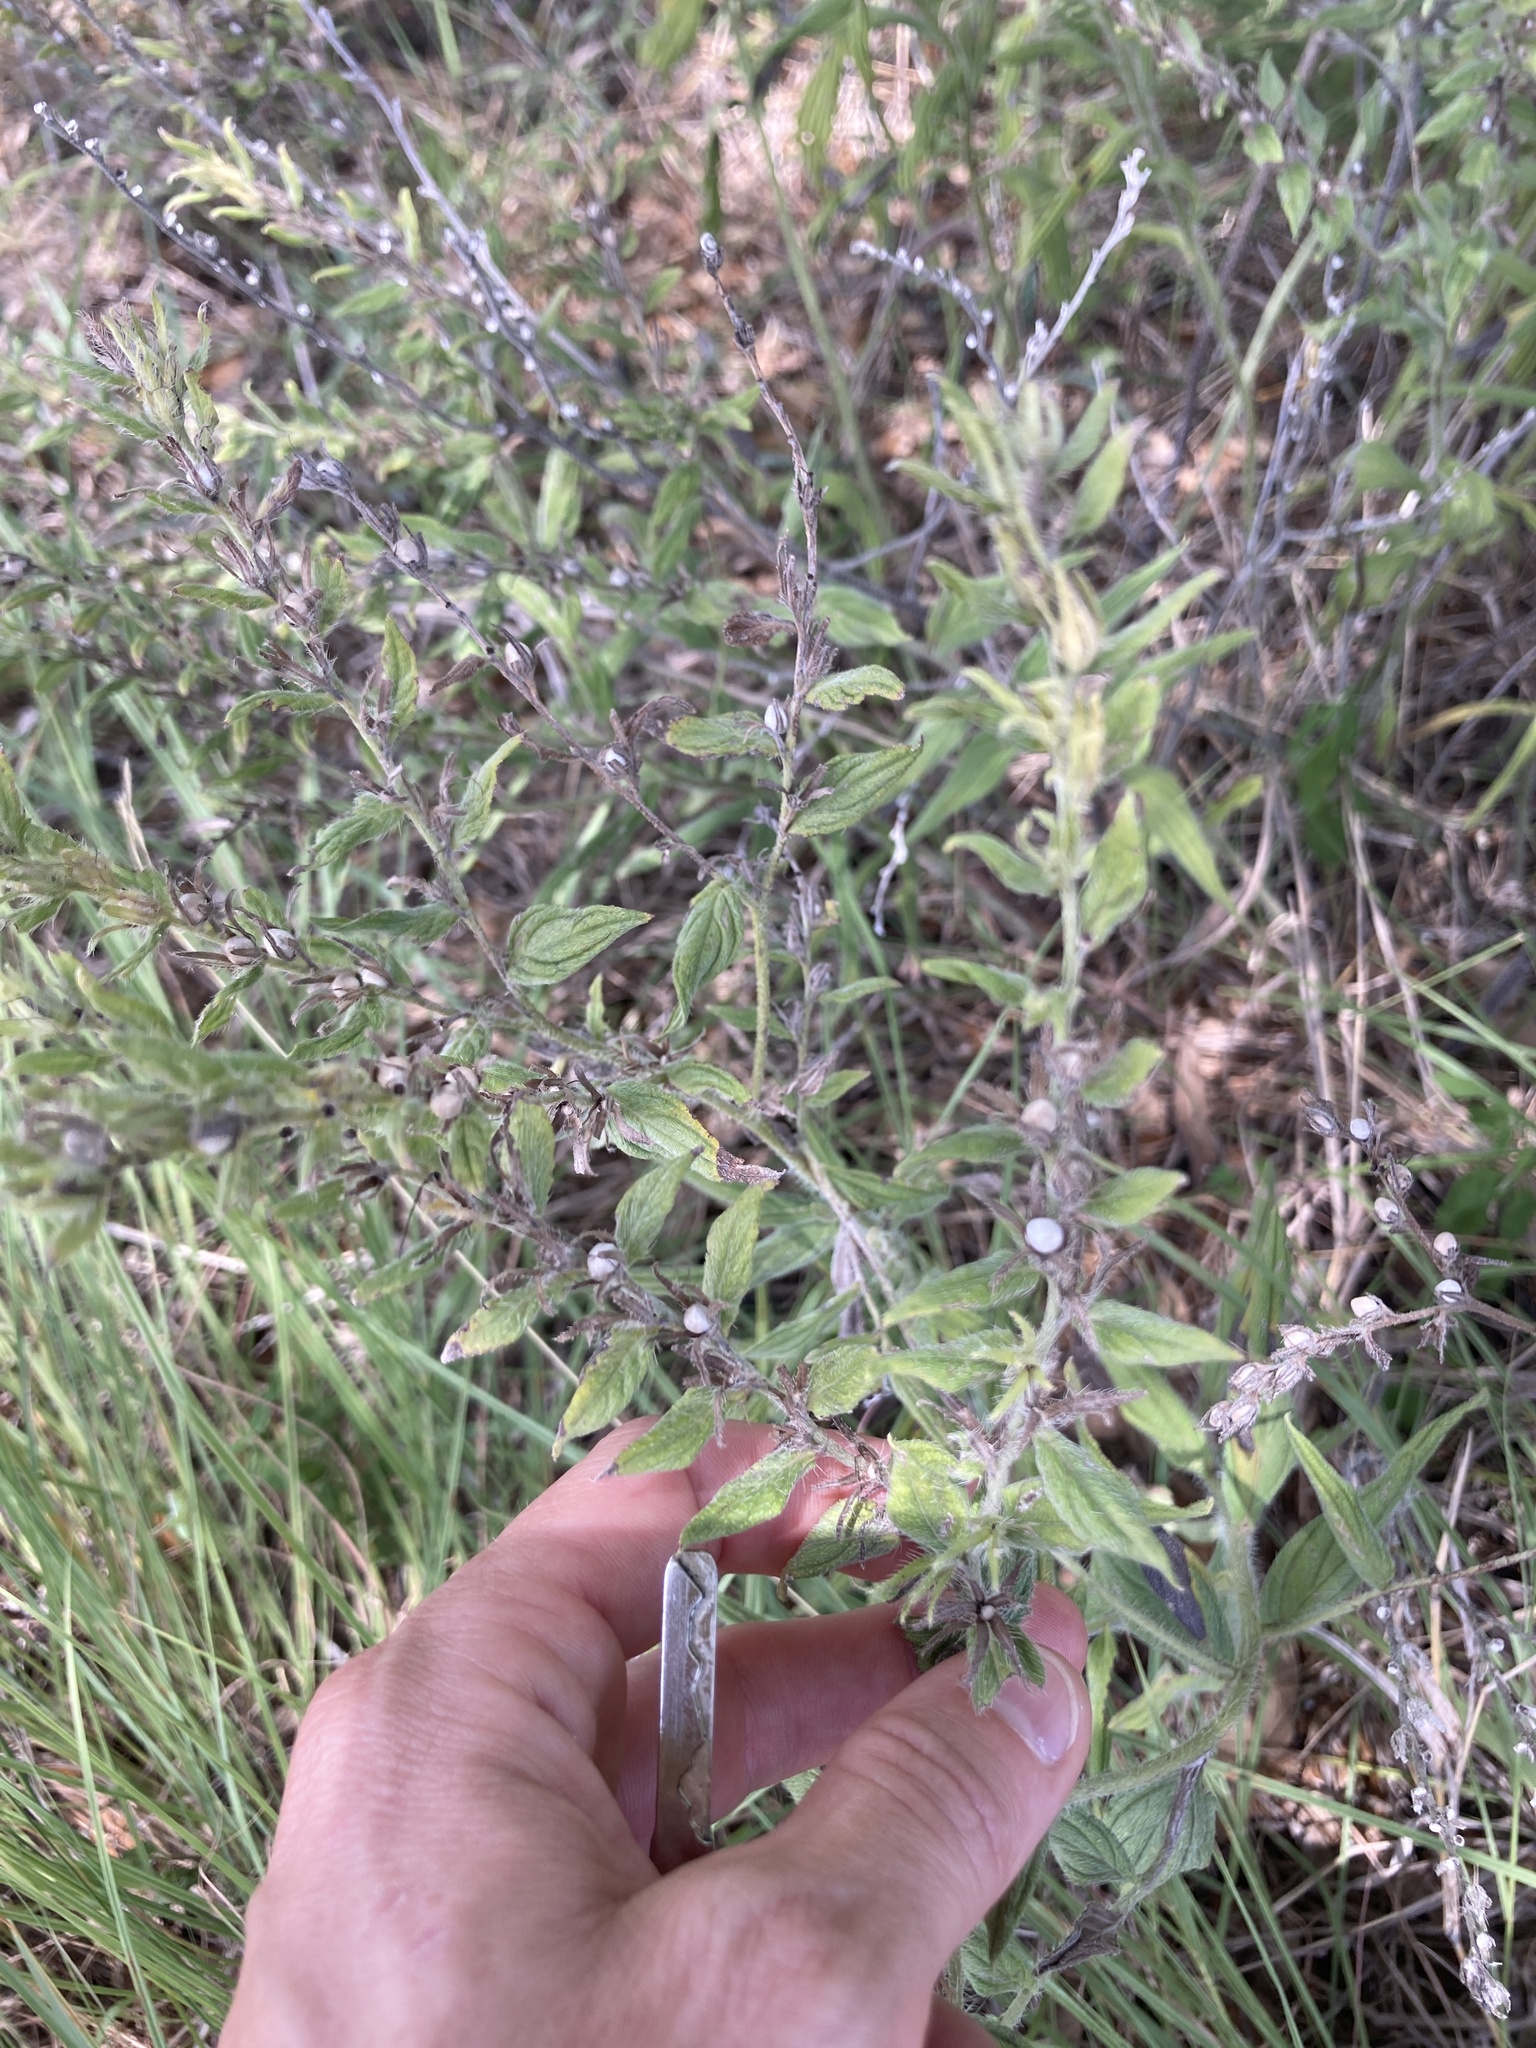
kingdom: Plantae
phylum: Tracheophyta
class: Magnoliopsida
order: Boraginales
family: Boraginaceae
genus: Lithospermum
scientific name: Lithospermum caroliniense
